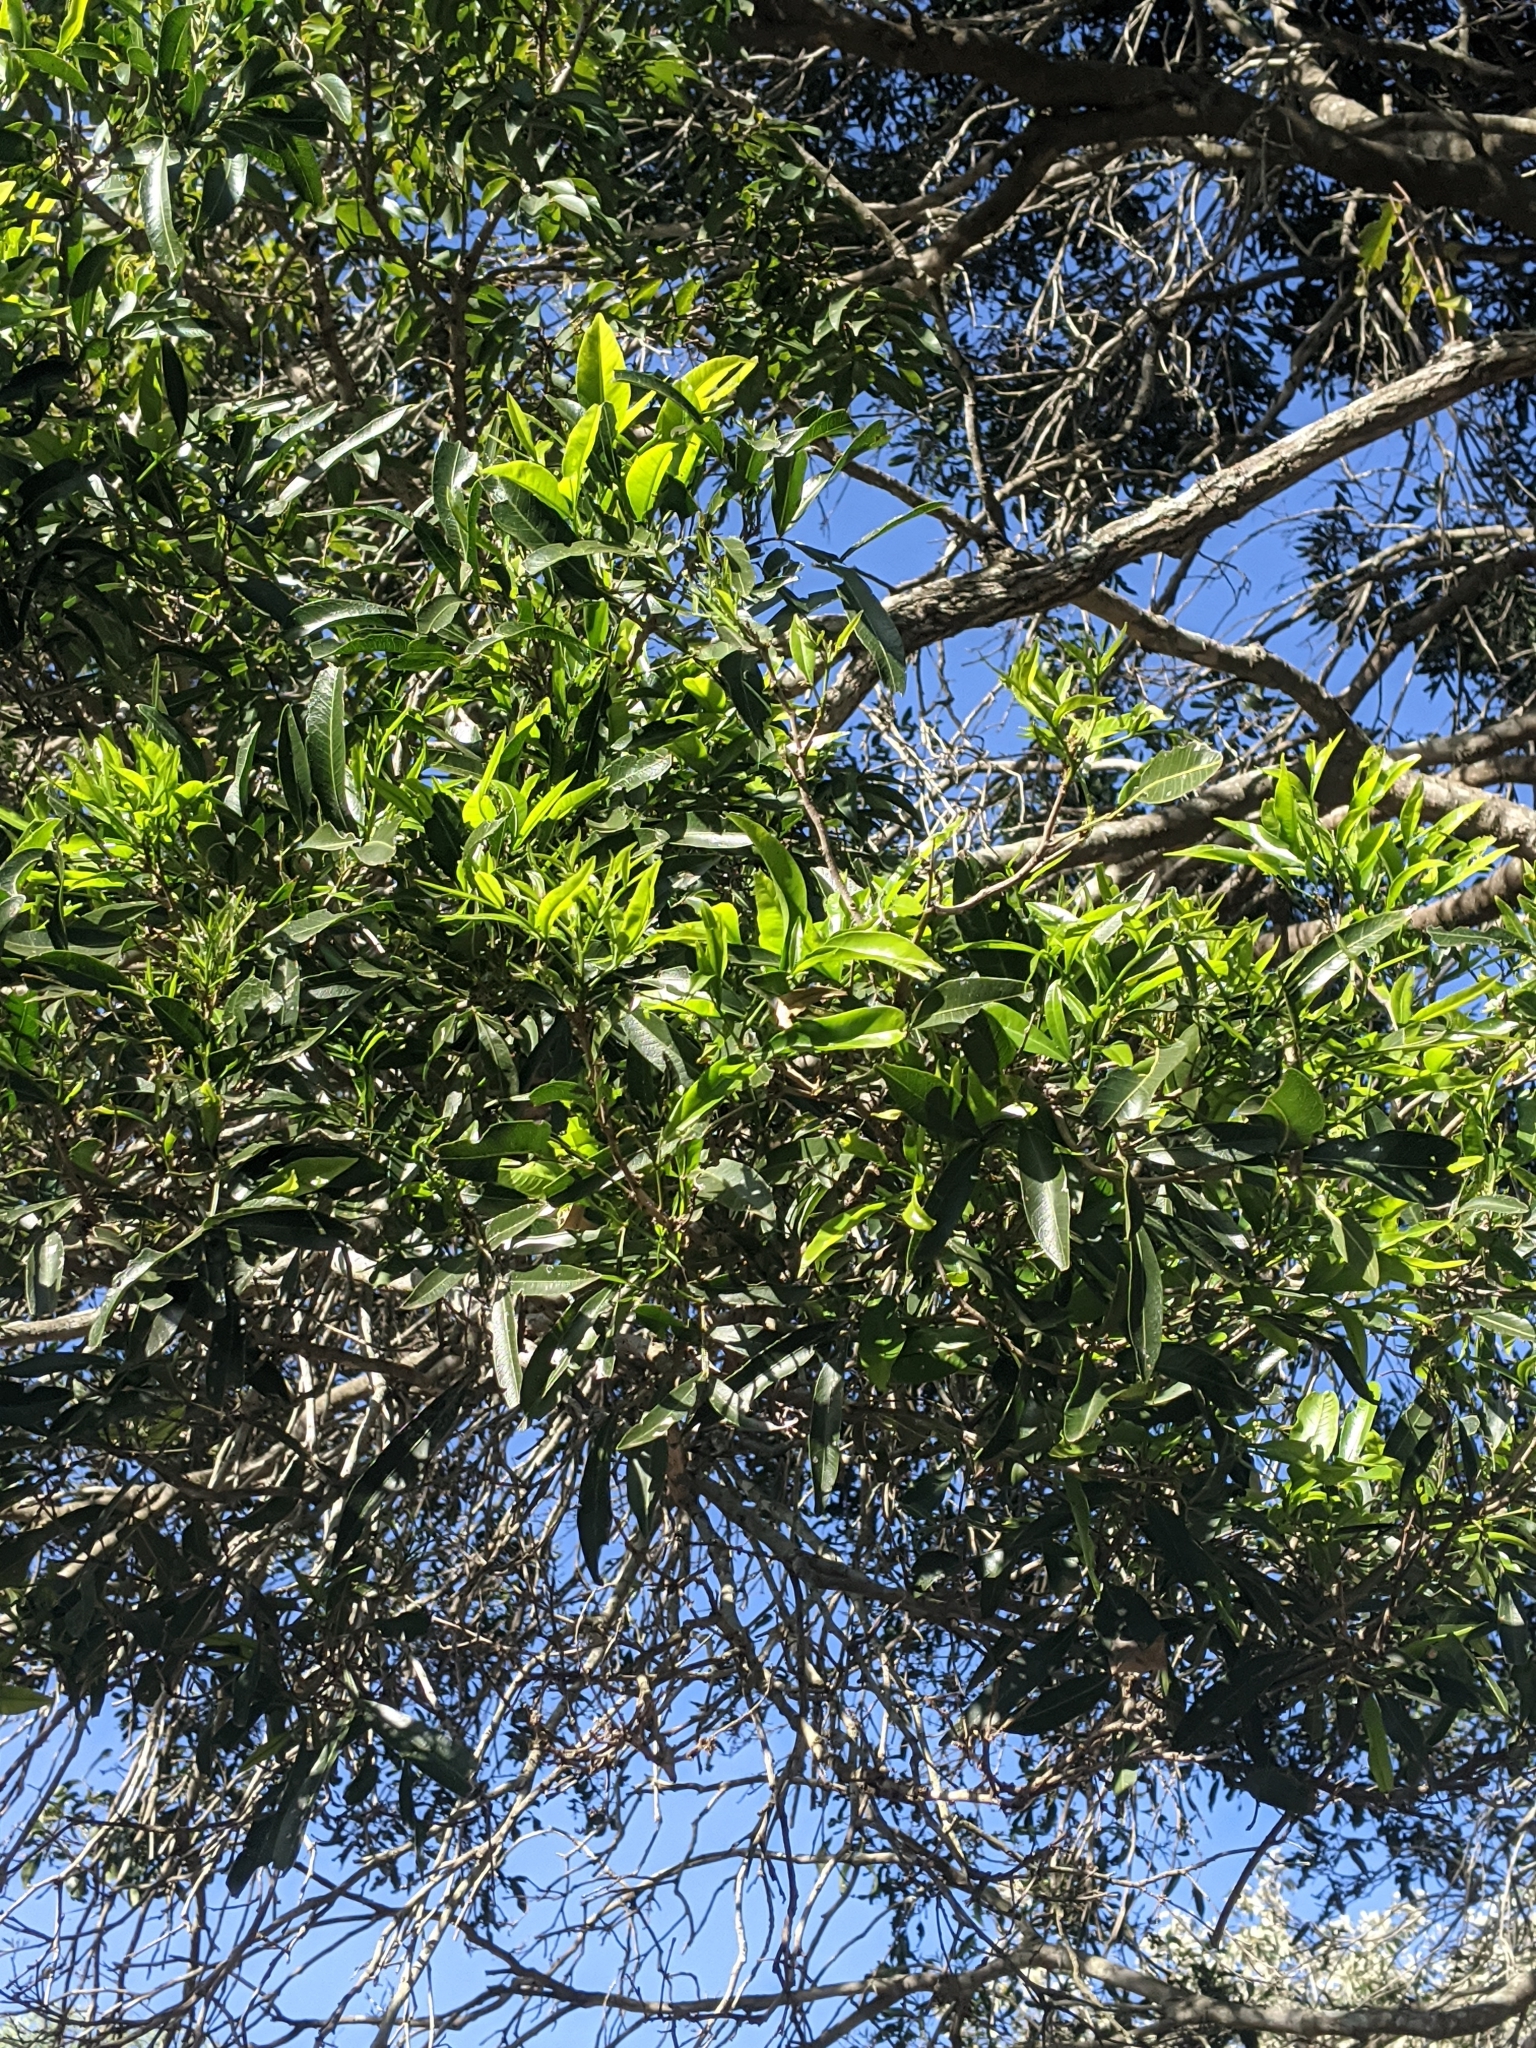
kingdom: Plantae
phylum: Tracheophyta
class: Magnoliopsida
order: Sapindales
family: Sapindaceae
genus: Atalaya
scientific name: Atalaya salicifolia
